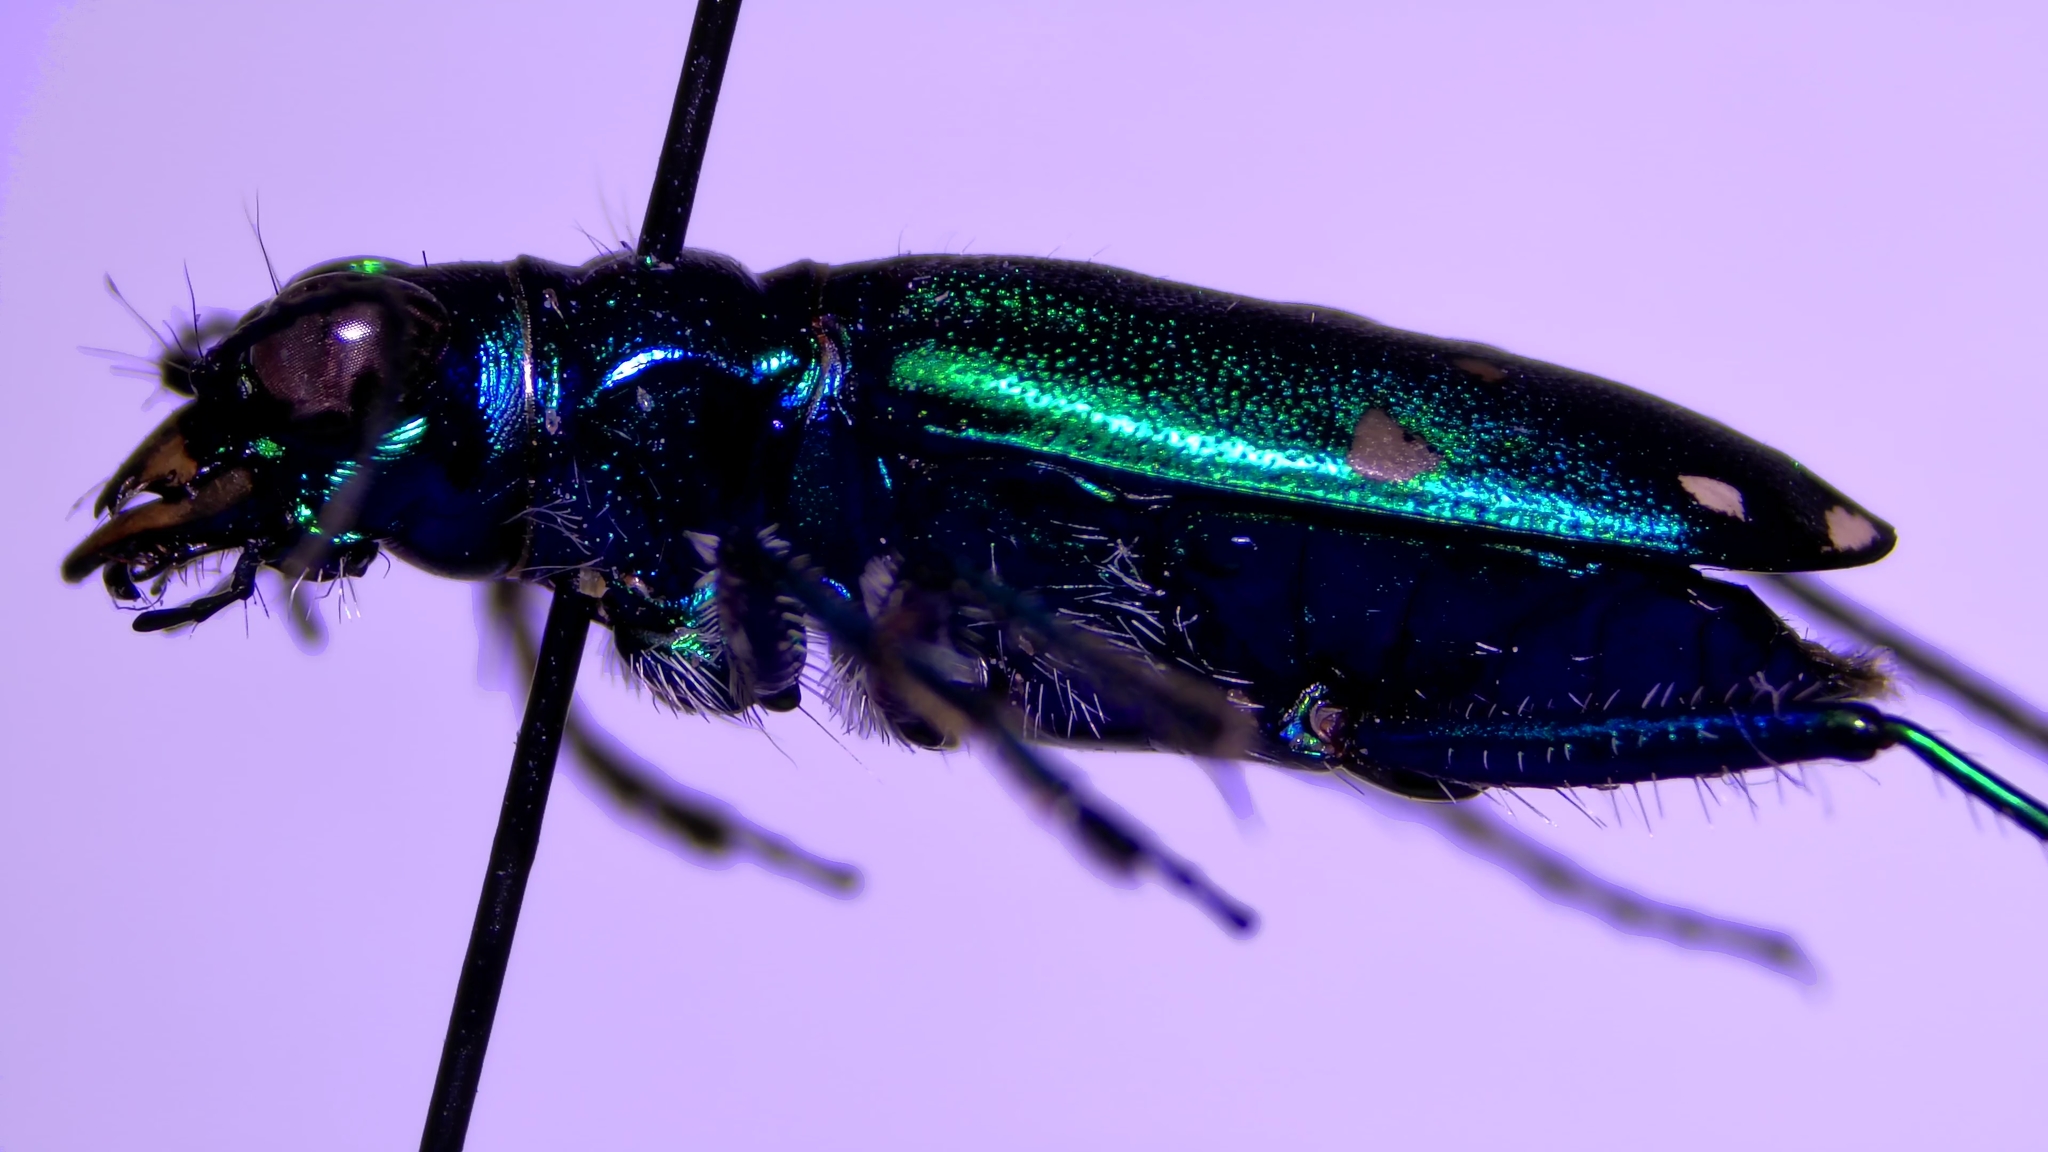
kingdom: Animalia
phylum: Arthropoda
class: Insecta
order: Coleoptera
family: Carabidae
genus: Cicindela
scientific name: Cicindela sexguttata
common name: Six-spotted tiger beetle
